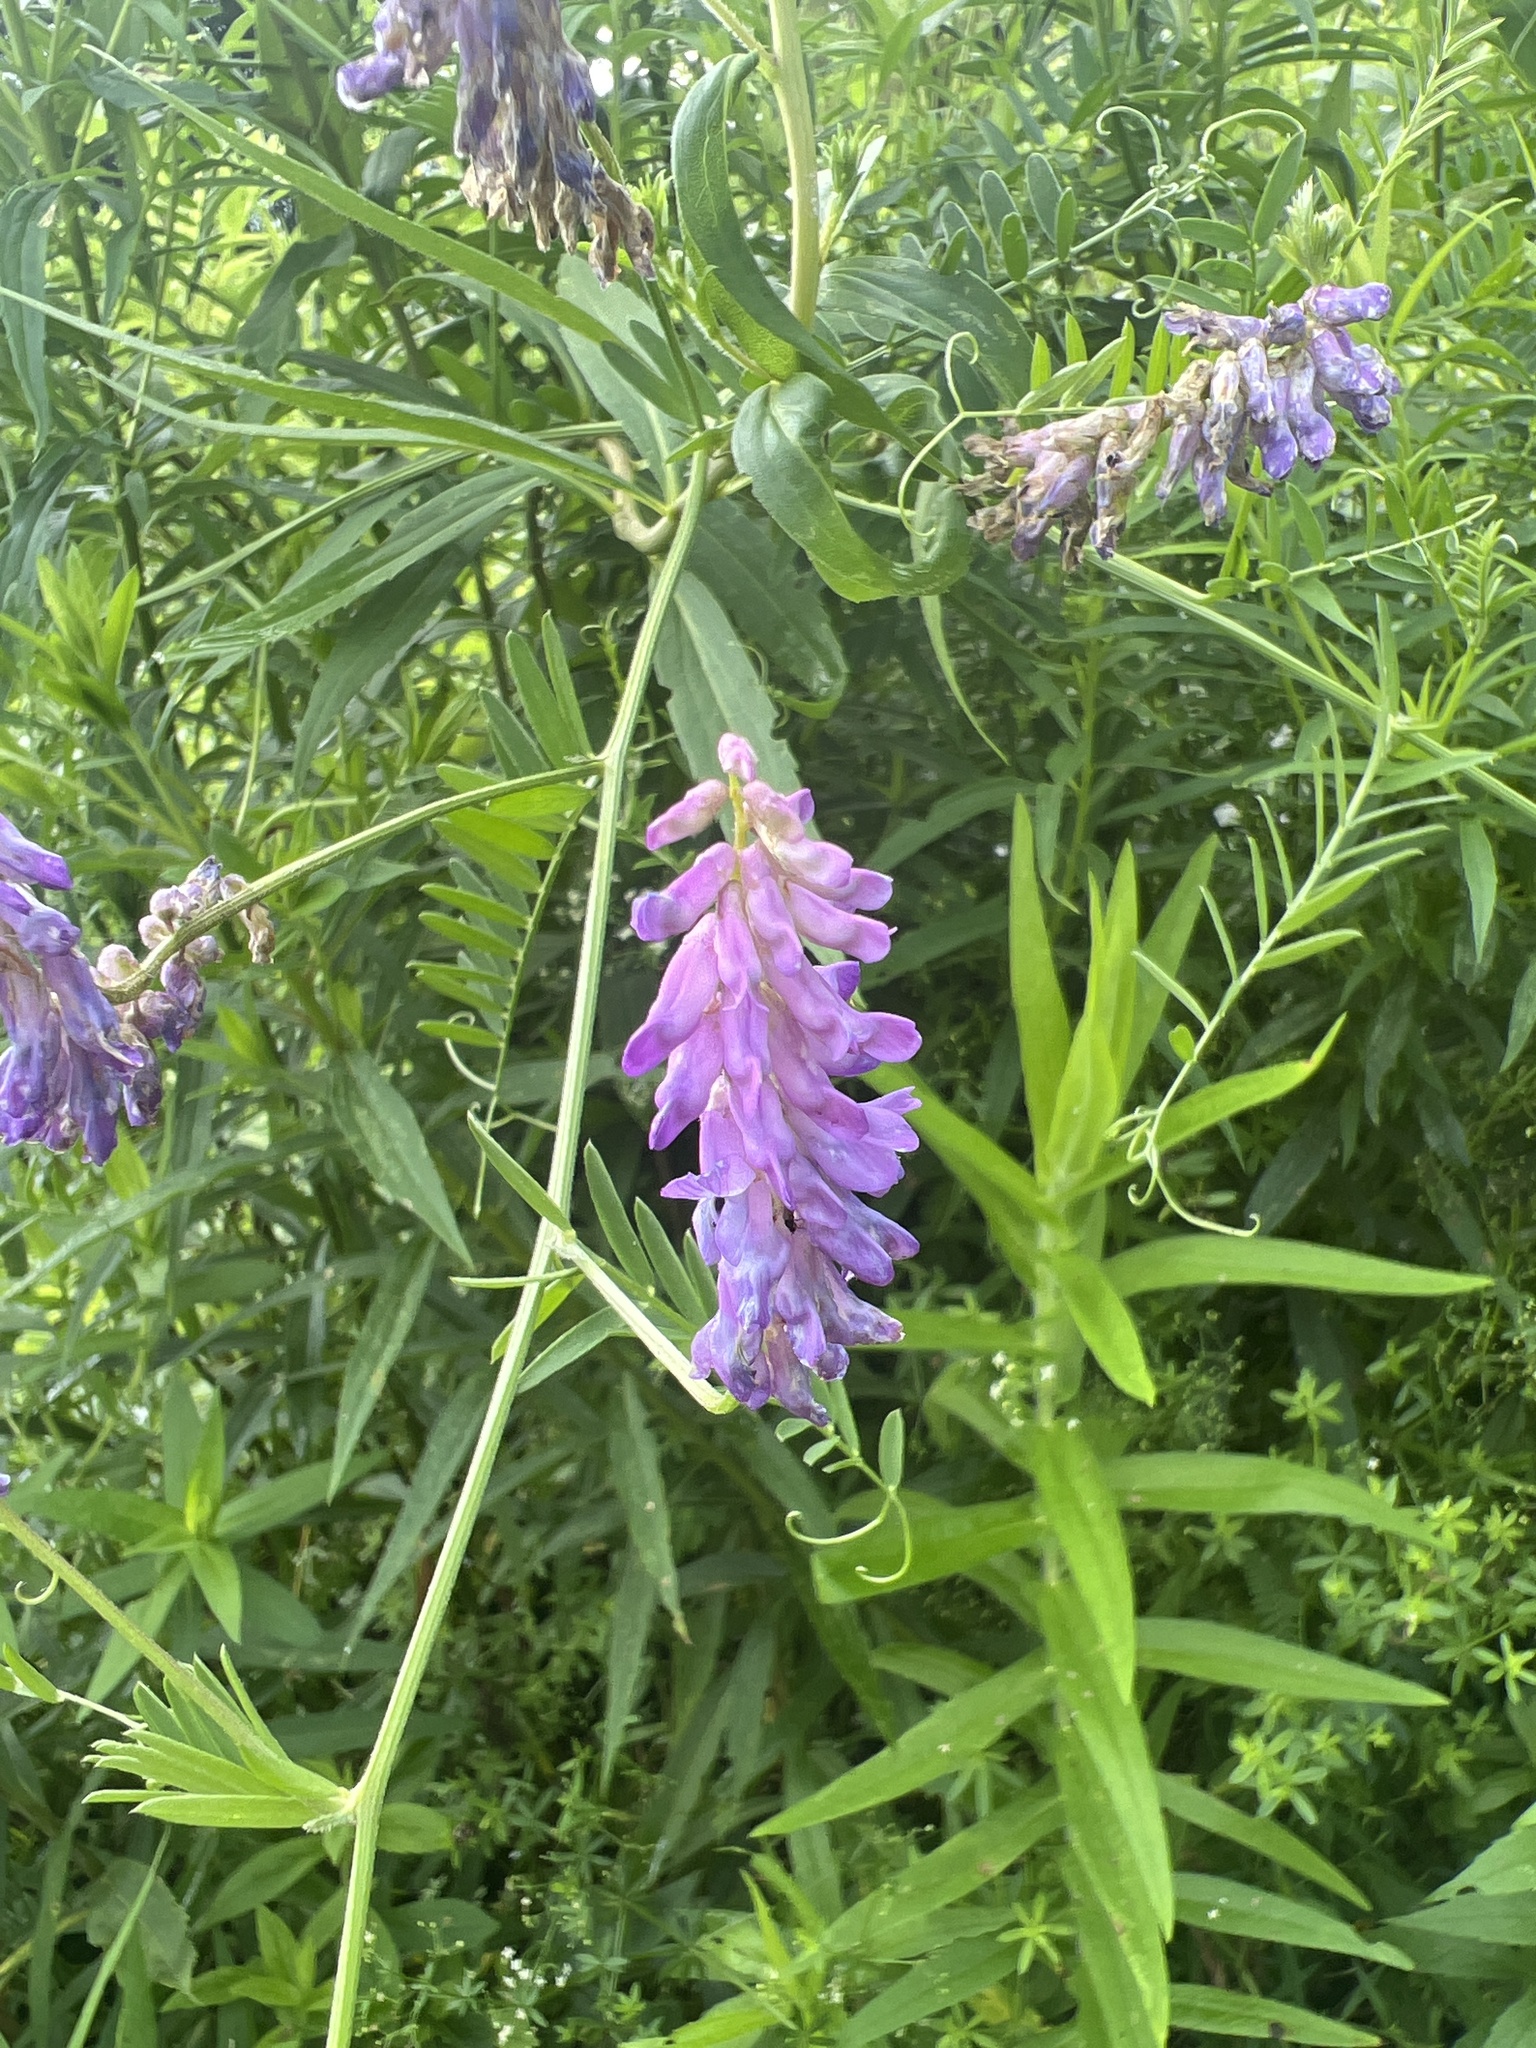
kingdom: Plantae
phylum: Tracheophyta
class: Magnoliopsida
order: Fabales
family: Fabaceae
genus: Vicia
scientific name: Vicia cracca
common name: Bird vetch
